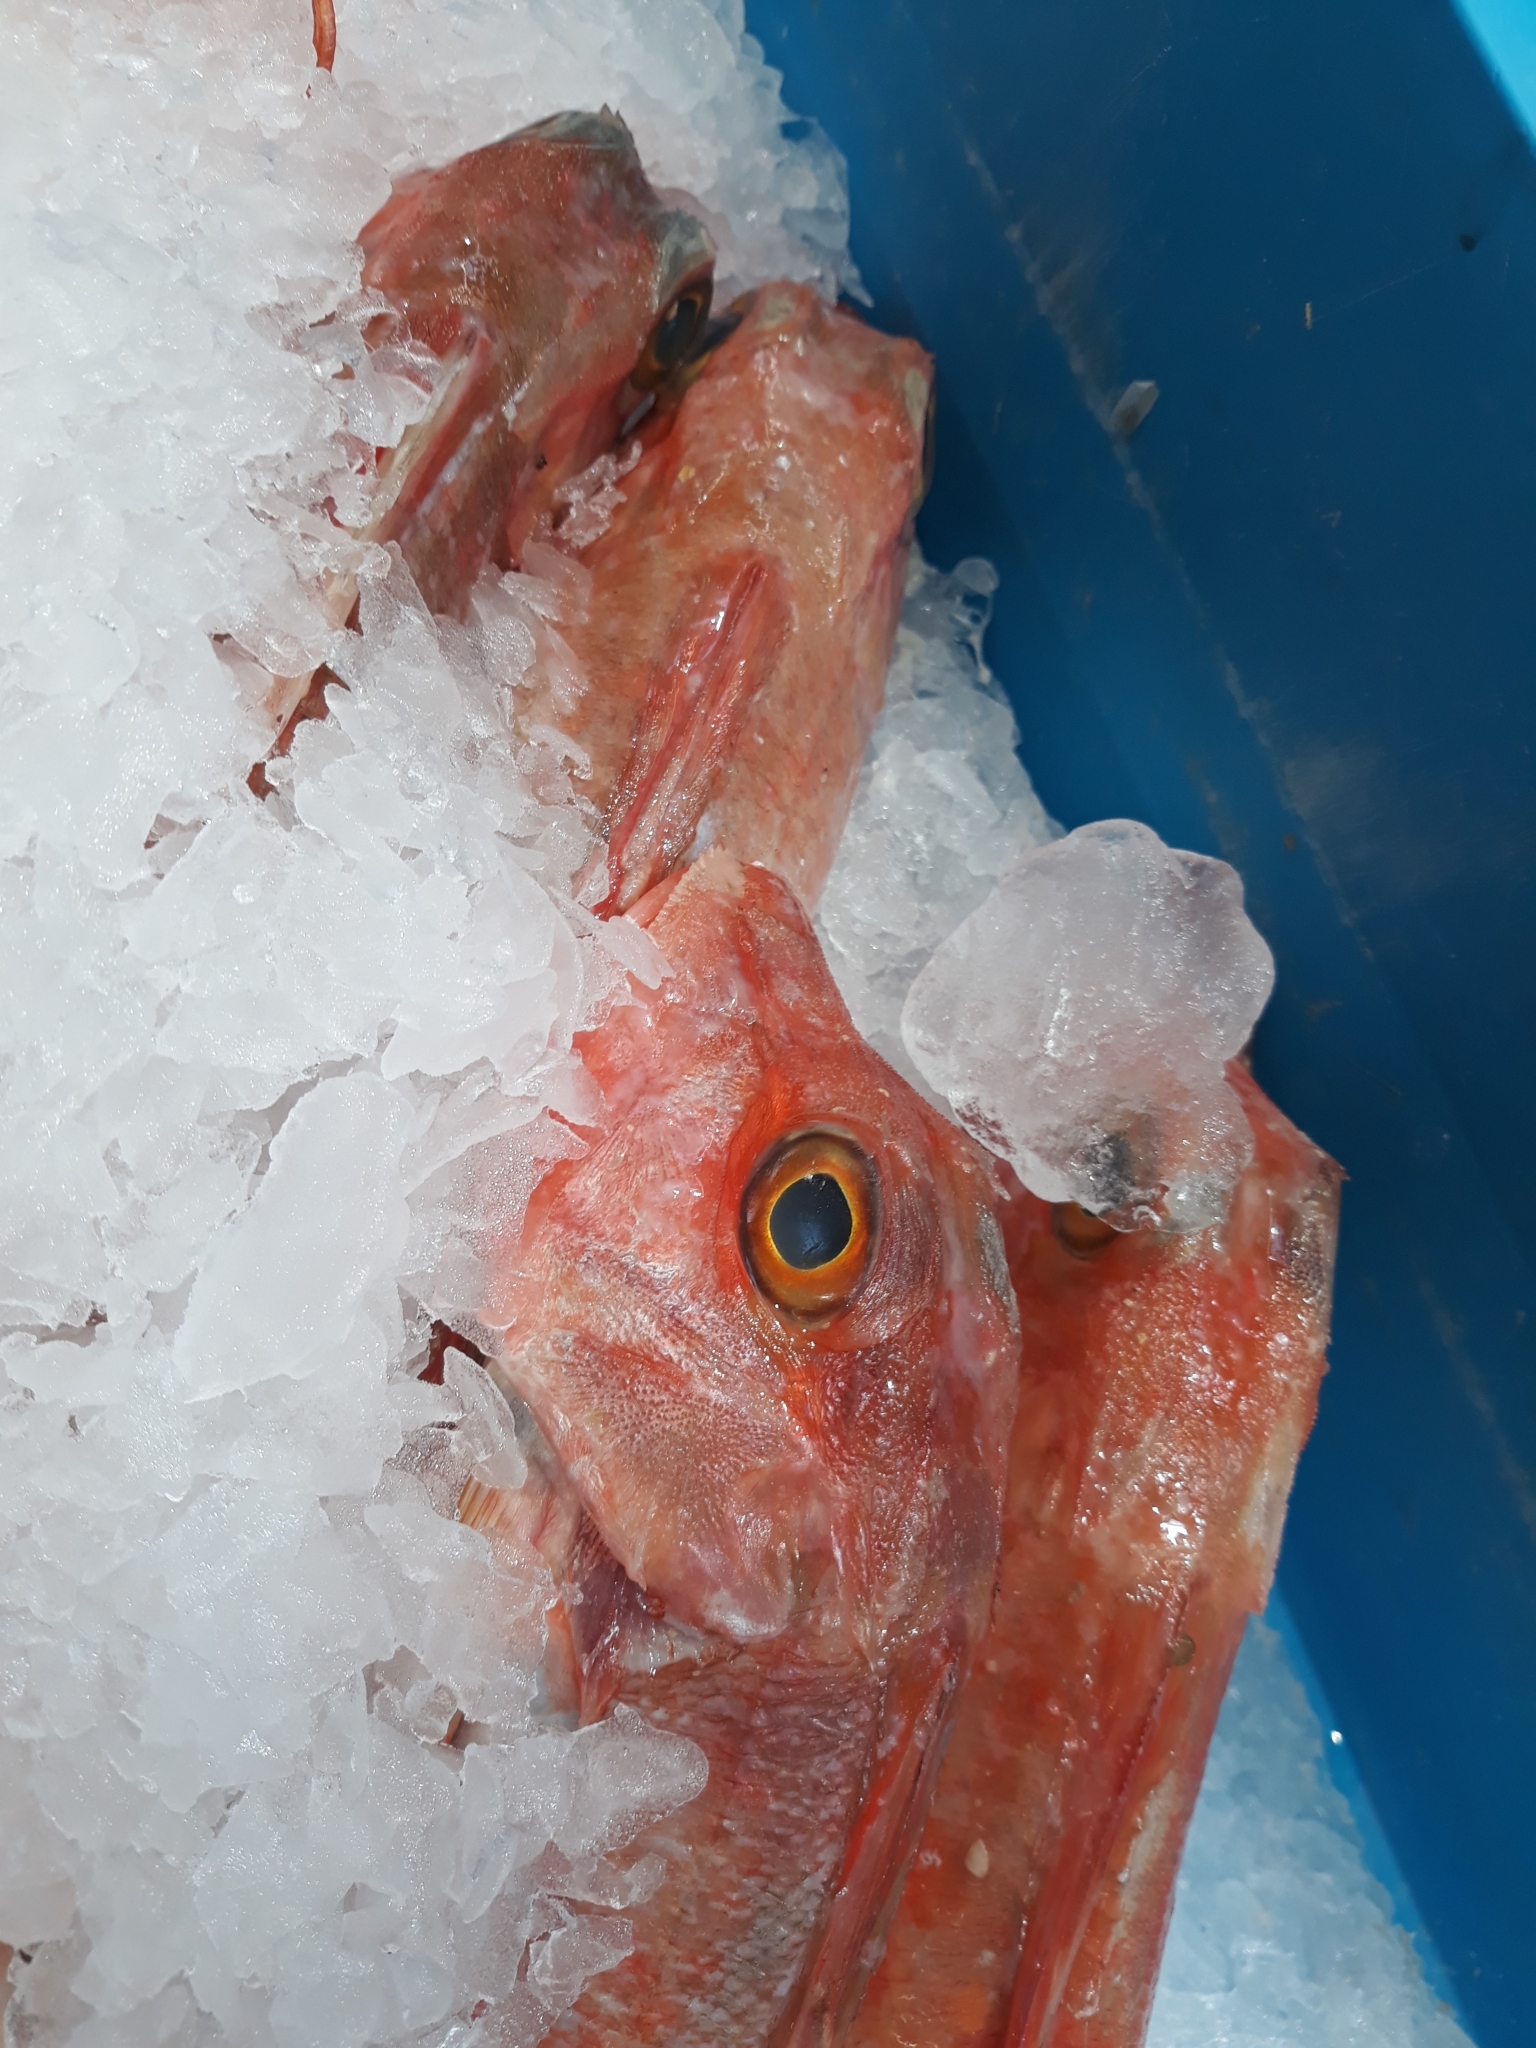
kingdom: Animalia
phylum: Chordata
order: Scorpaeniformes
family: Triglidae
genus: Chelidonichthys
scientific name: Chelidonichthys cuculus
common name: Red gurnard
